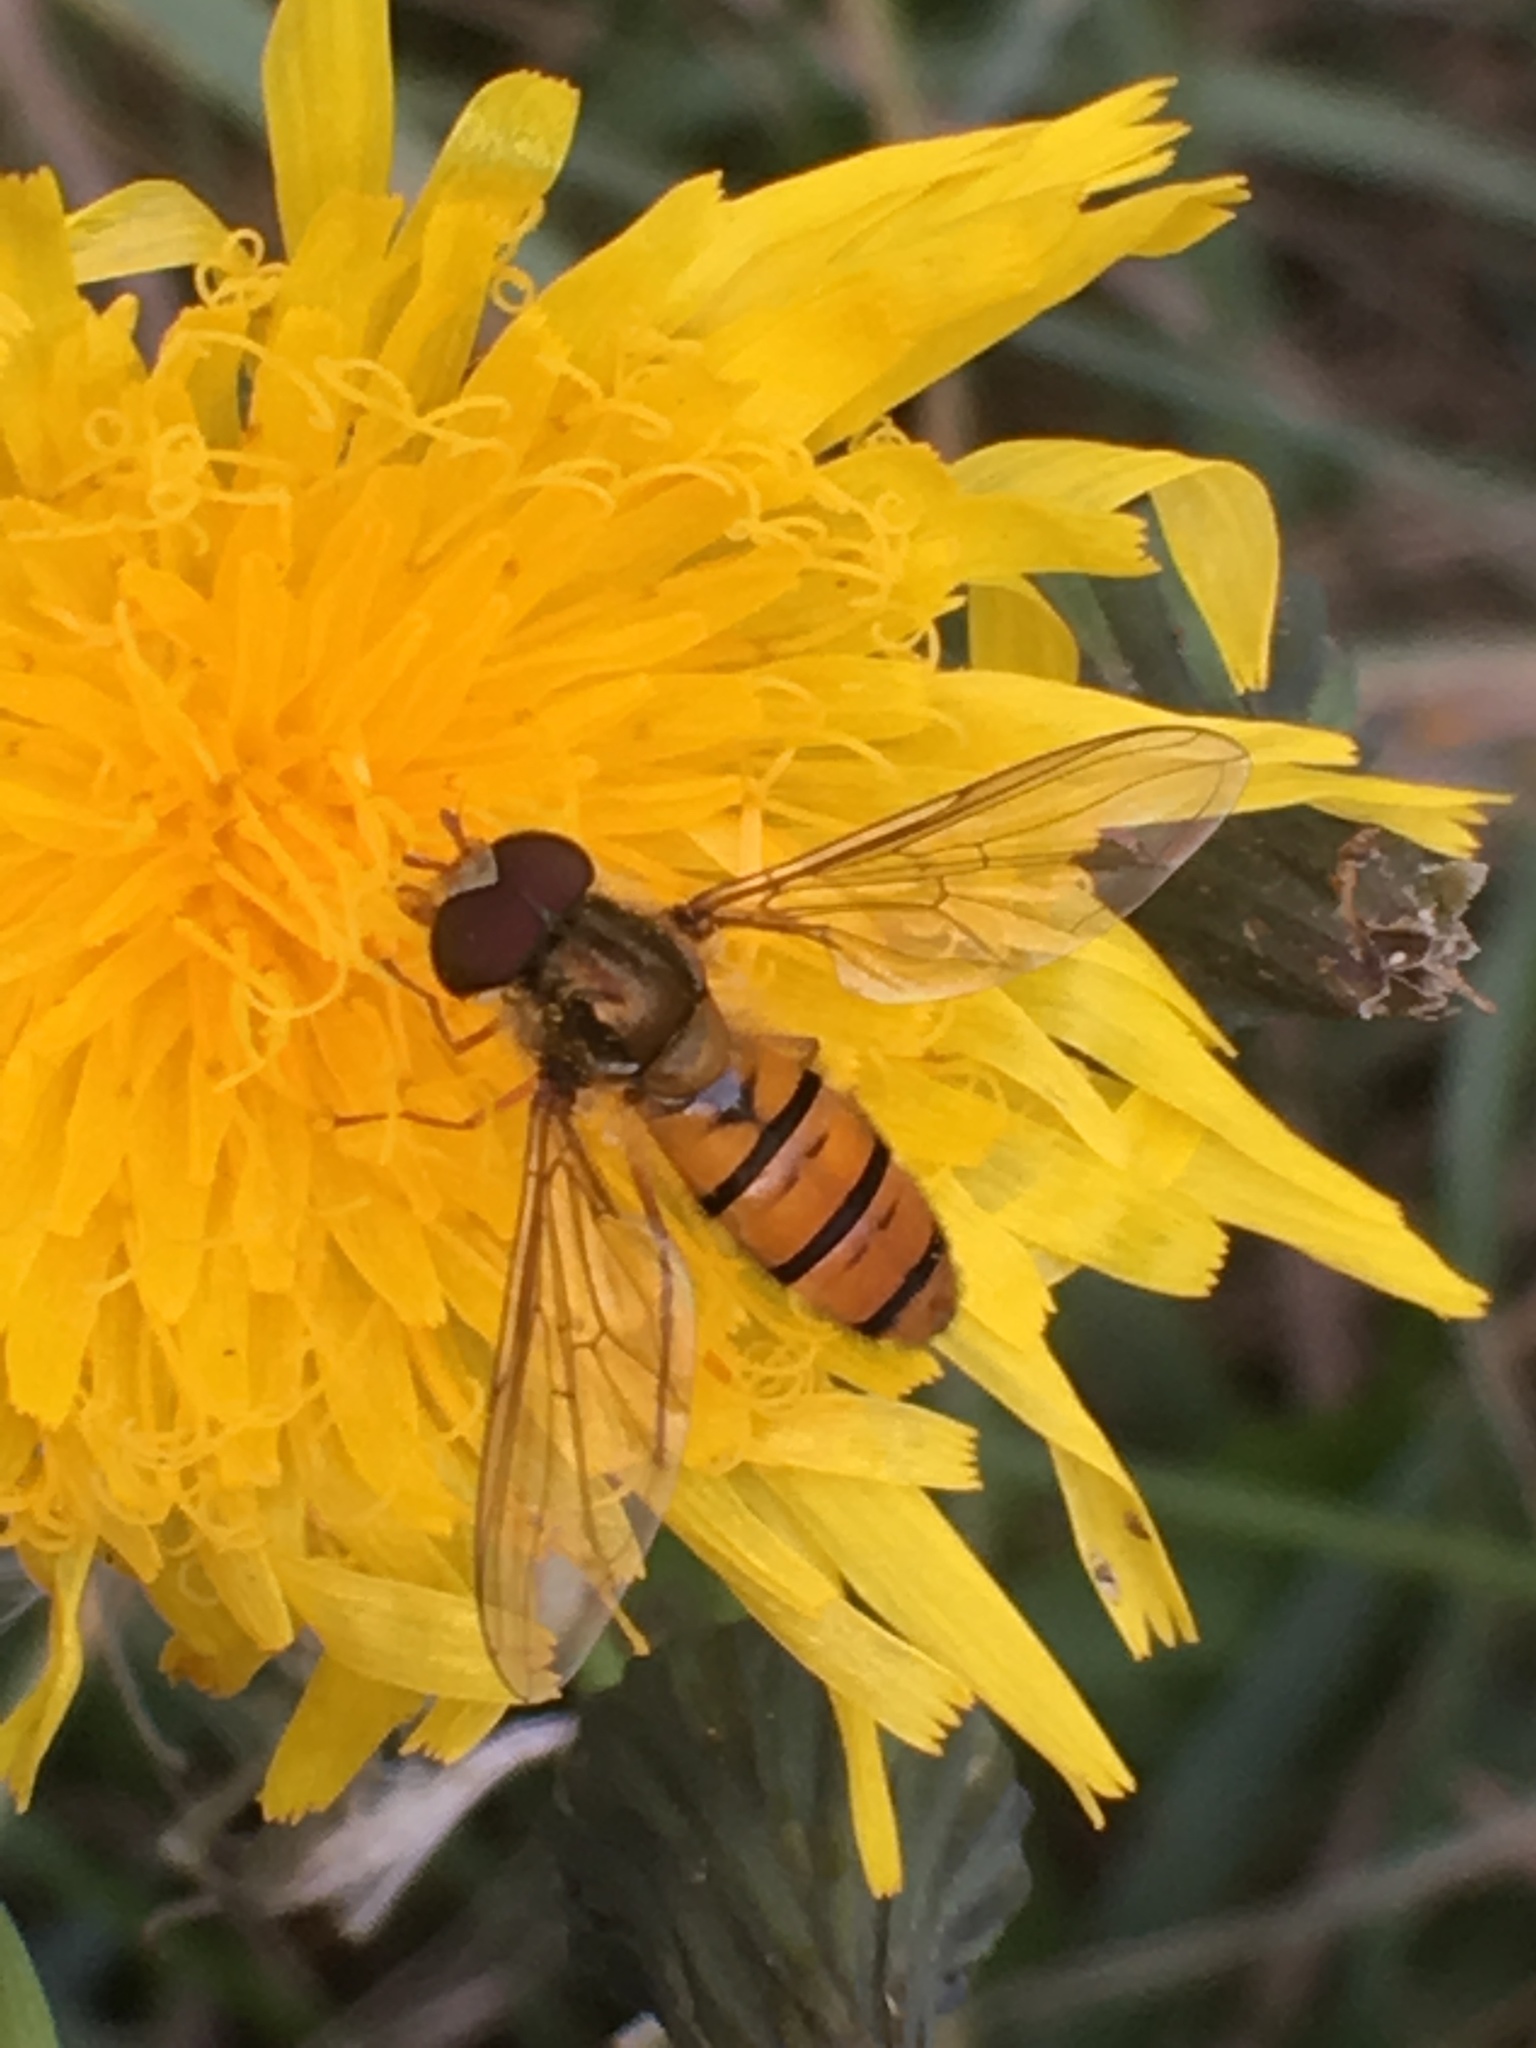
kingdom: Animalia
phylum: Arthropoda
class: Insecta
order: Diptera
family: Syrphidae
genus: Episyrphus
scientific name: Episyrphus balteatus
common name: Marmalade hoverfly
